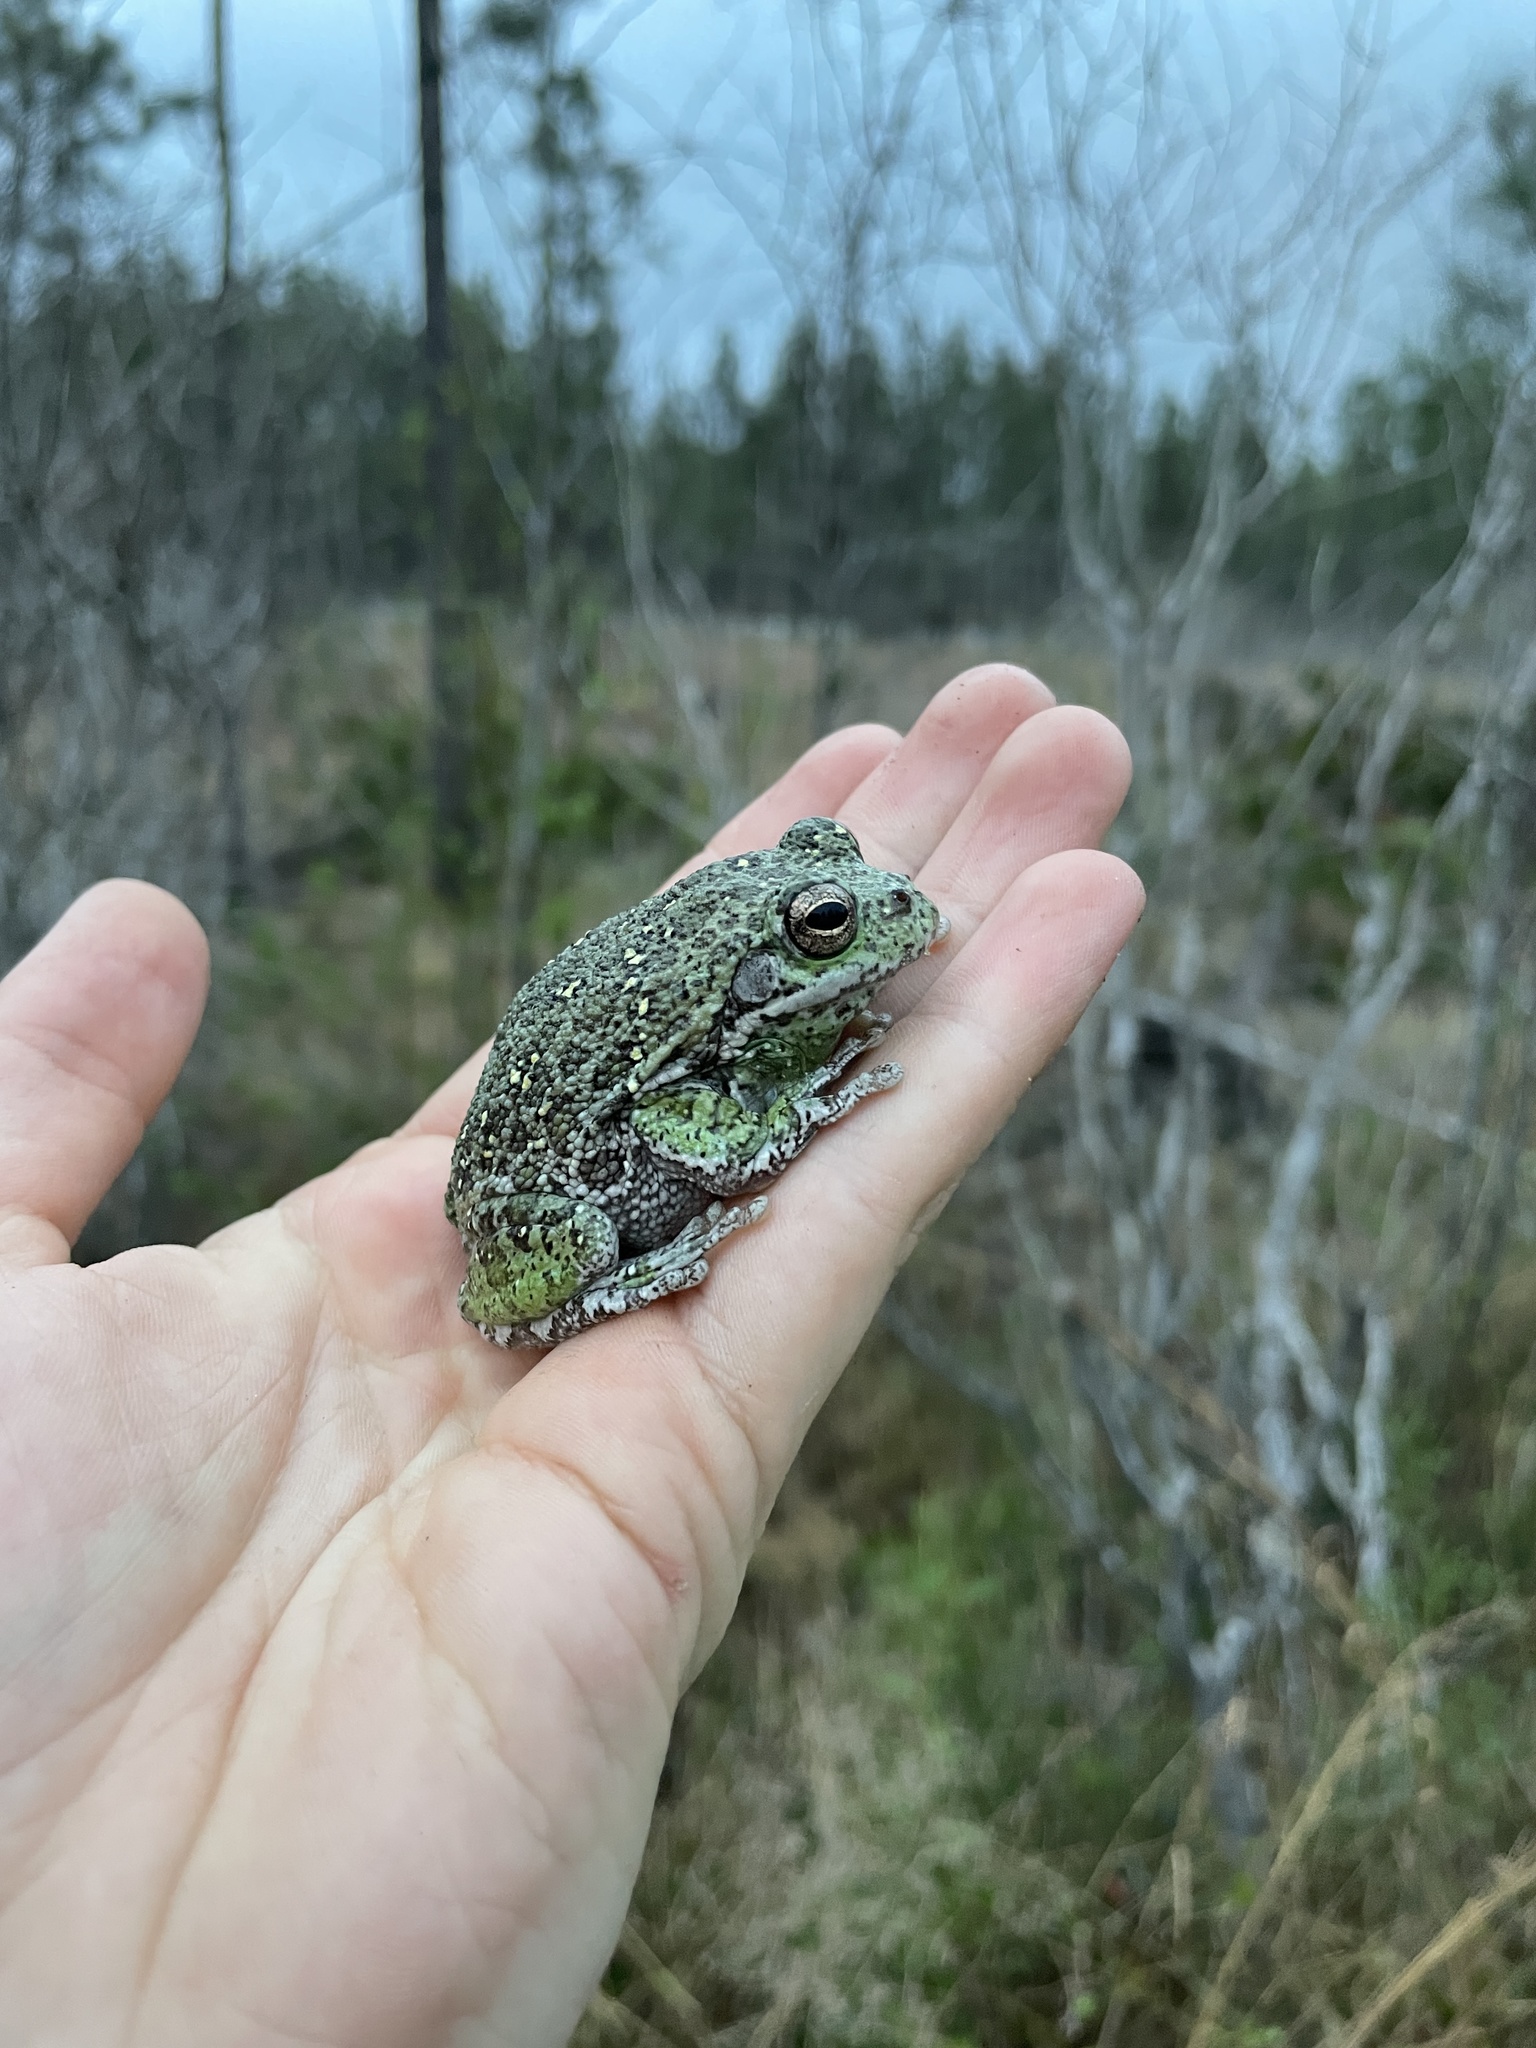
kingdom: Animalia
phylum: Chordata
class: Amphibia
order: Anura
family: Hylidae
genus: Dryophytes
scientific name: Dryophytes gratiosus
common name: Barking treefrog
